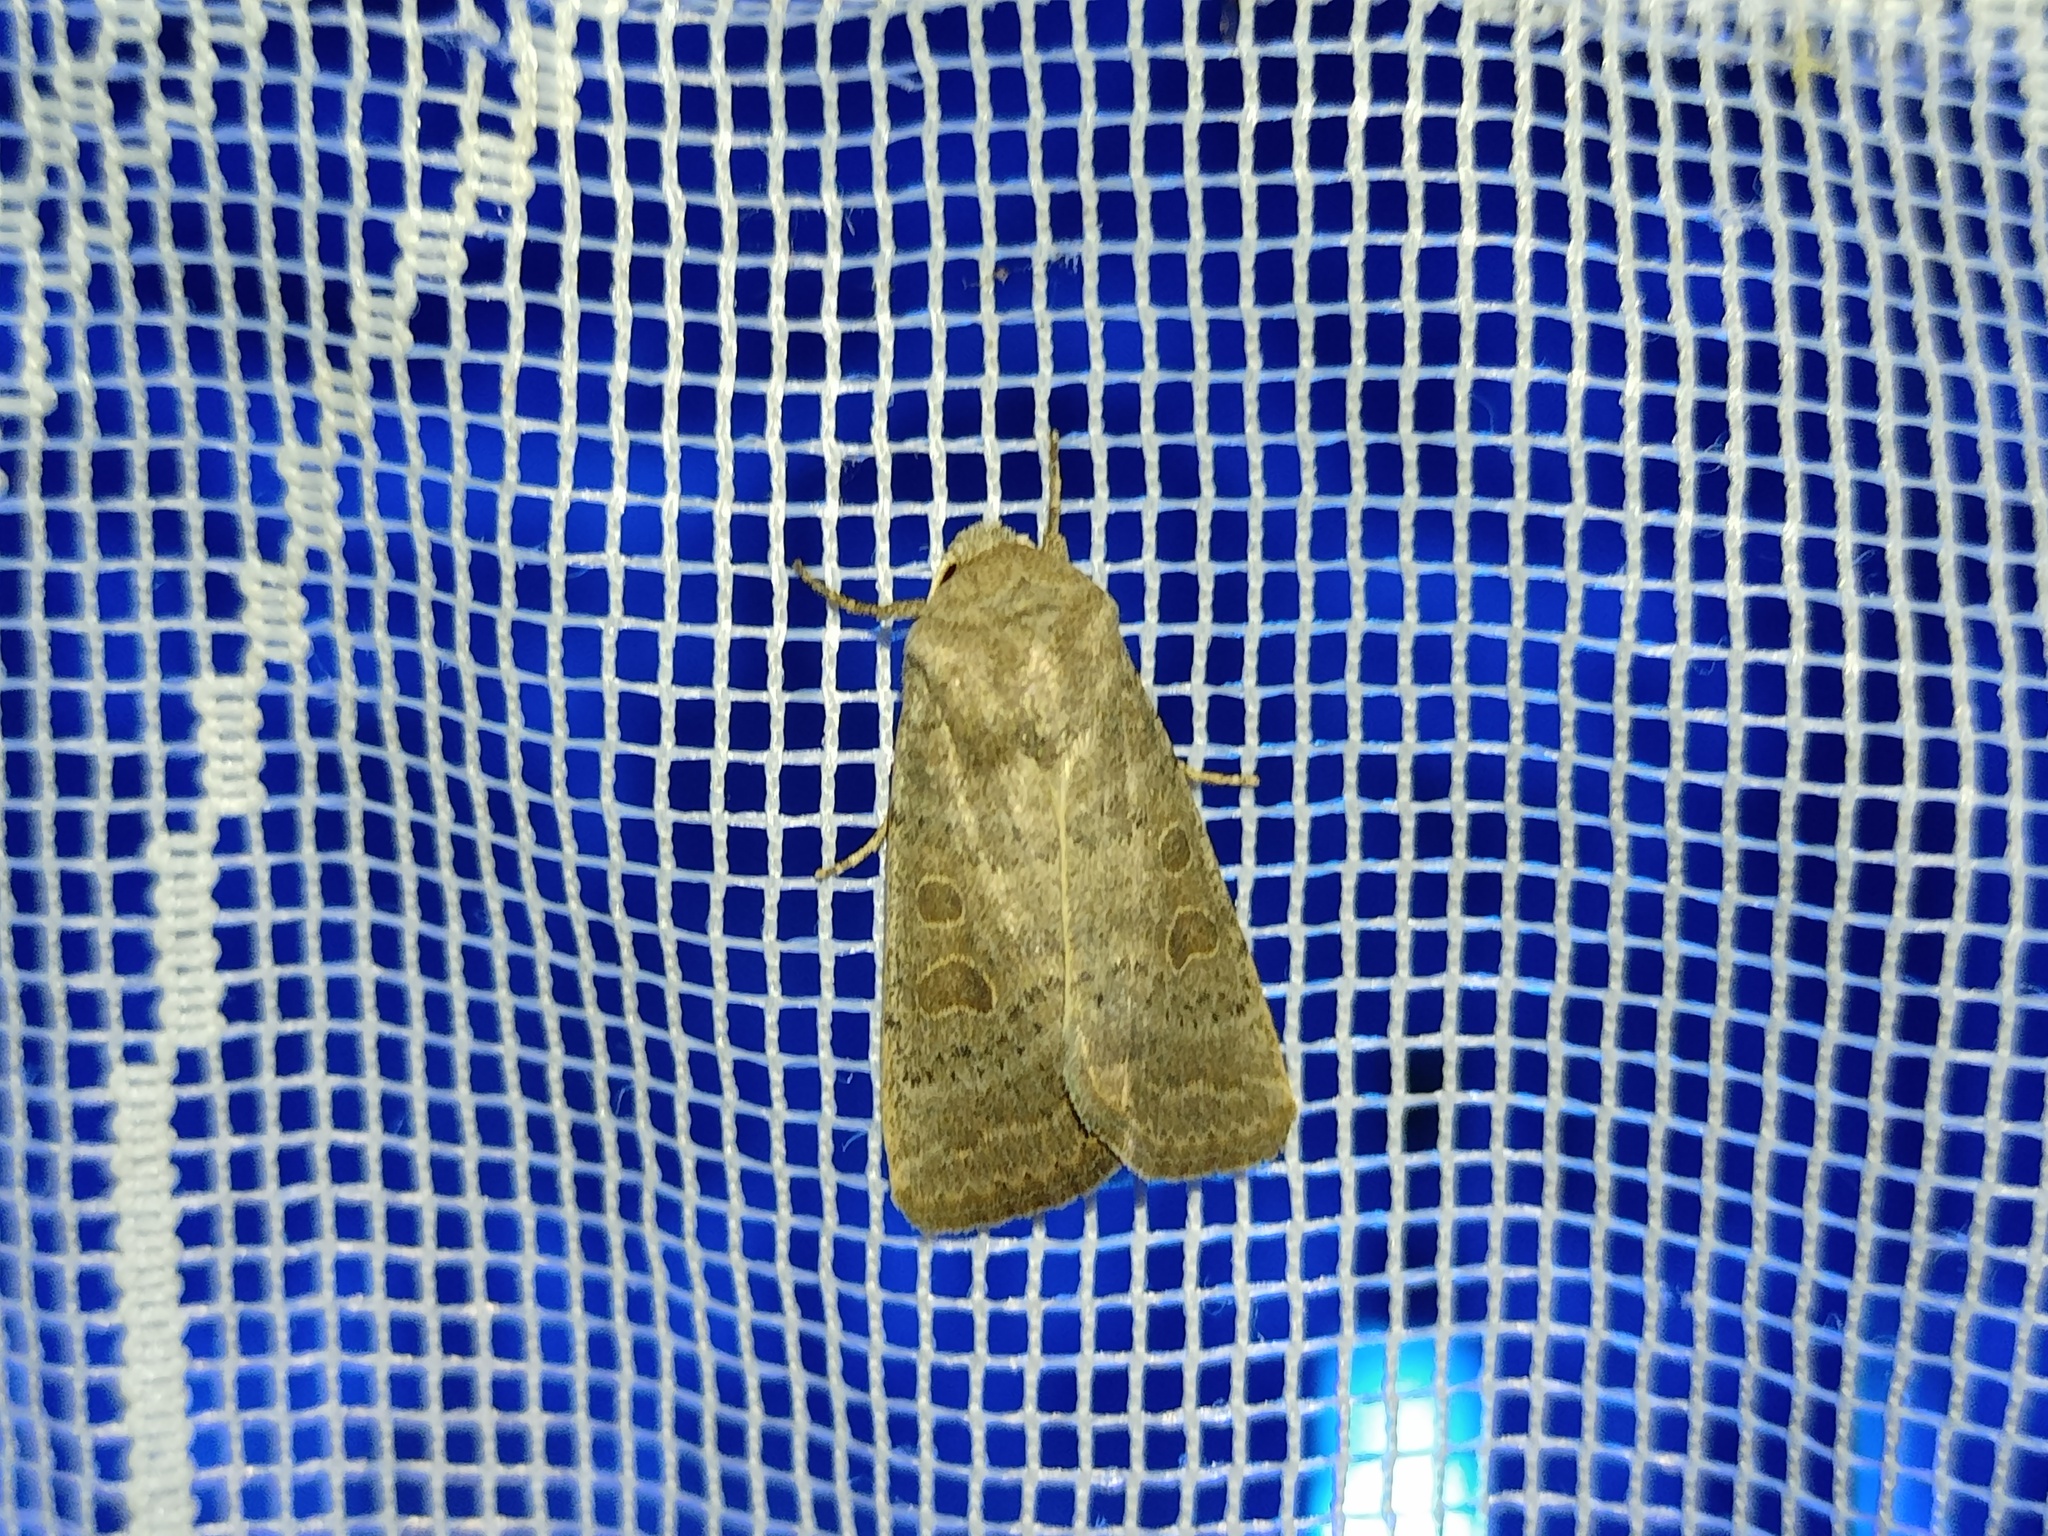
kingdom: Animalia
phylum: Arthropoda
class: Insecta
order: Lepidoptera
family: Noctuidae
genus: Hoplodrina
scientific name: Hoplodrina ambigua
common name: Vine's rustic
